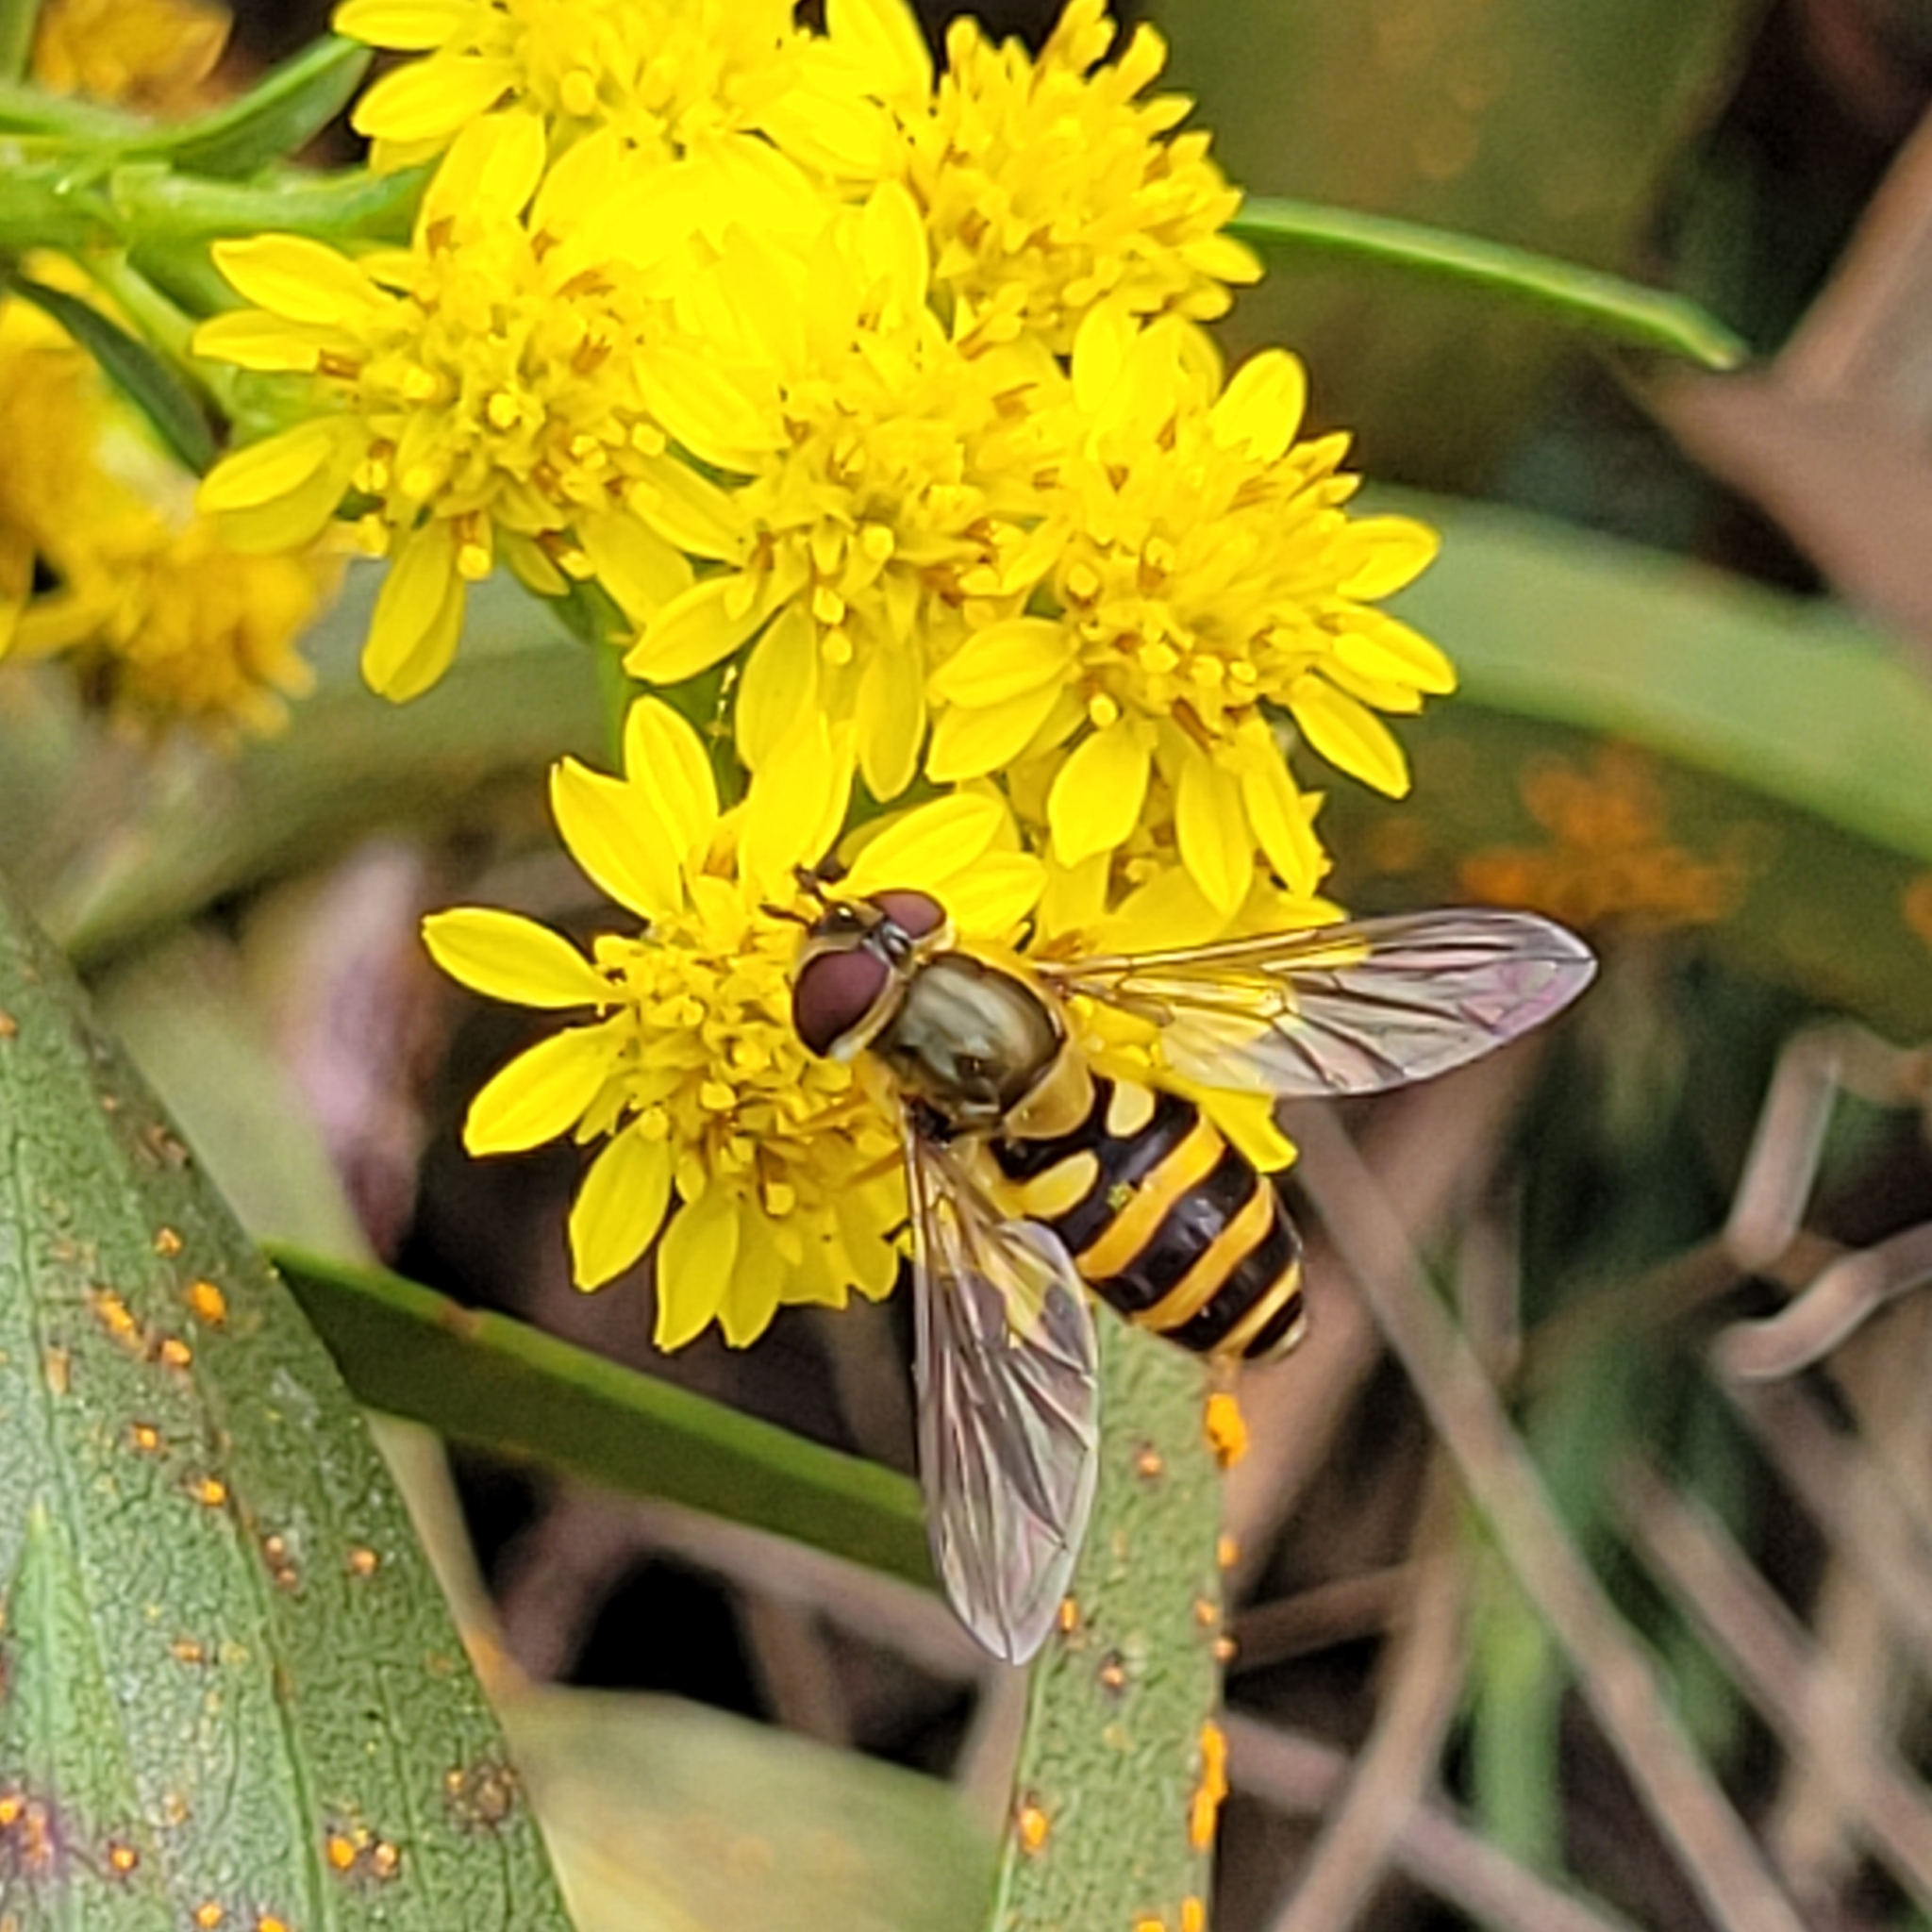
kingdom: Animalia
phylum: Arthropoda
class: Insecta
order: Diptera
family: Syrphidae
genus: Syrphus
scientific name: Syrphus ribesii
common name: Common flower fly
